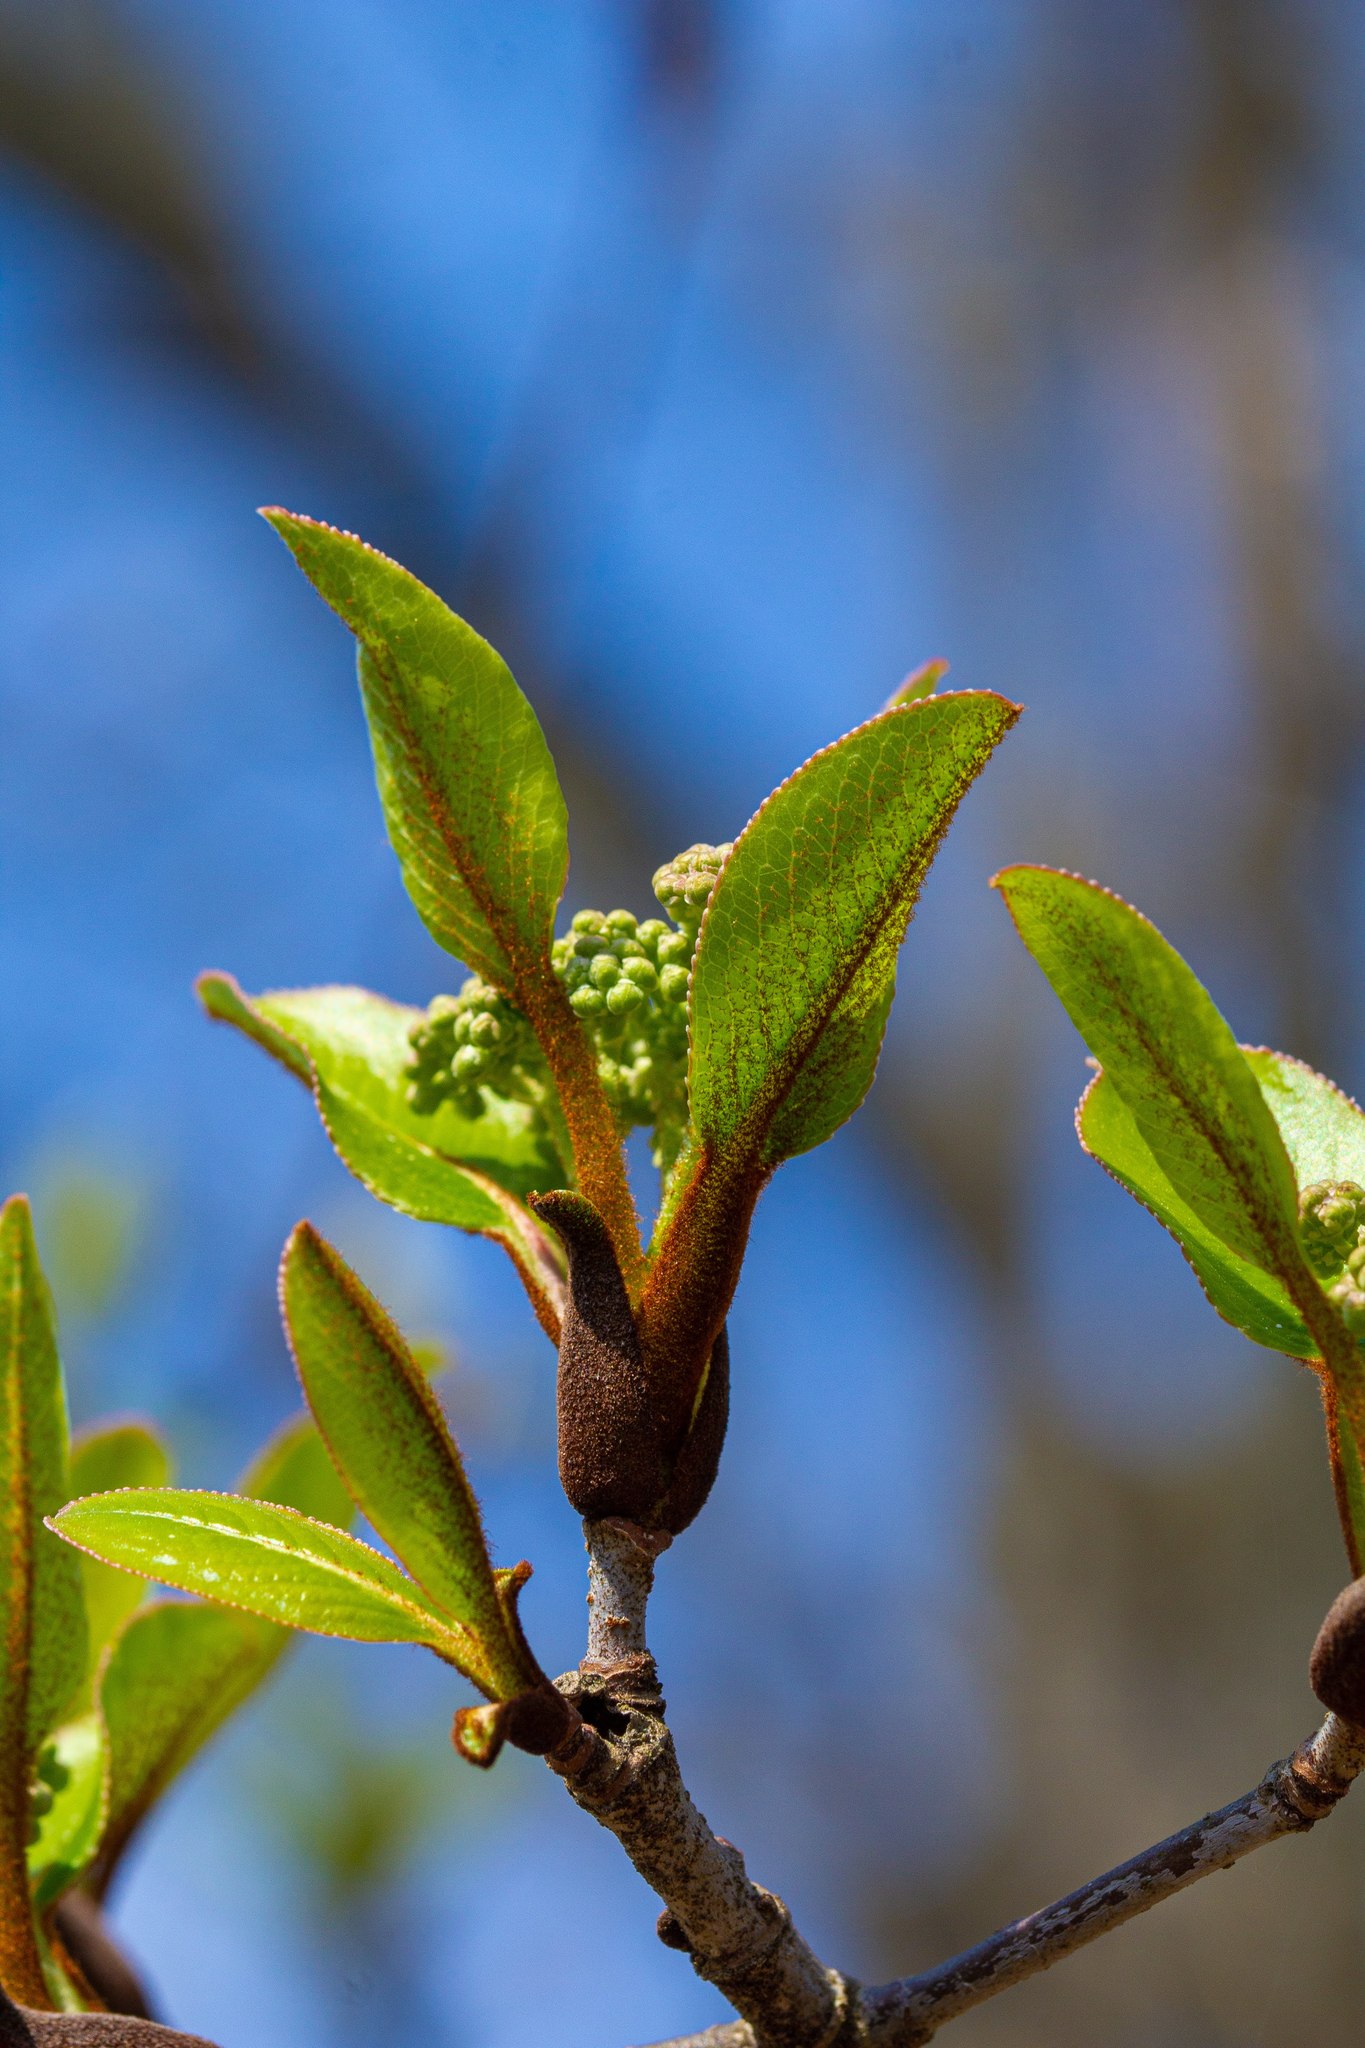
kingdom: Plantae
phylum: Tracheophyta
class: Magnoliopsida
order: Dipsacales
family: Viburnaceae
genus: Viburnum
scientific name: Viburnum rufidulum
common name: Blue haw
